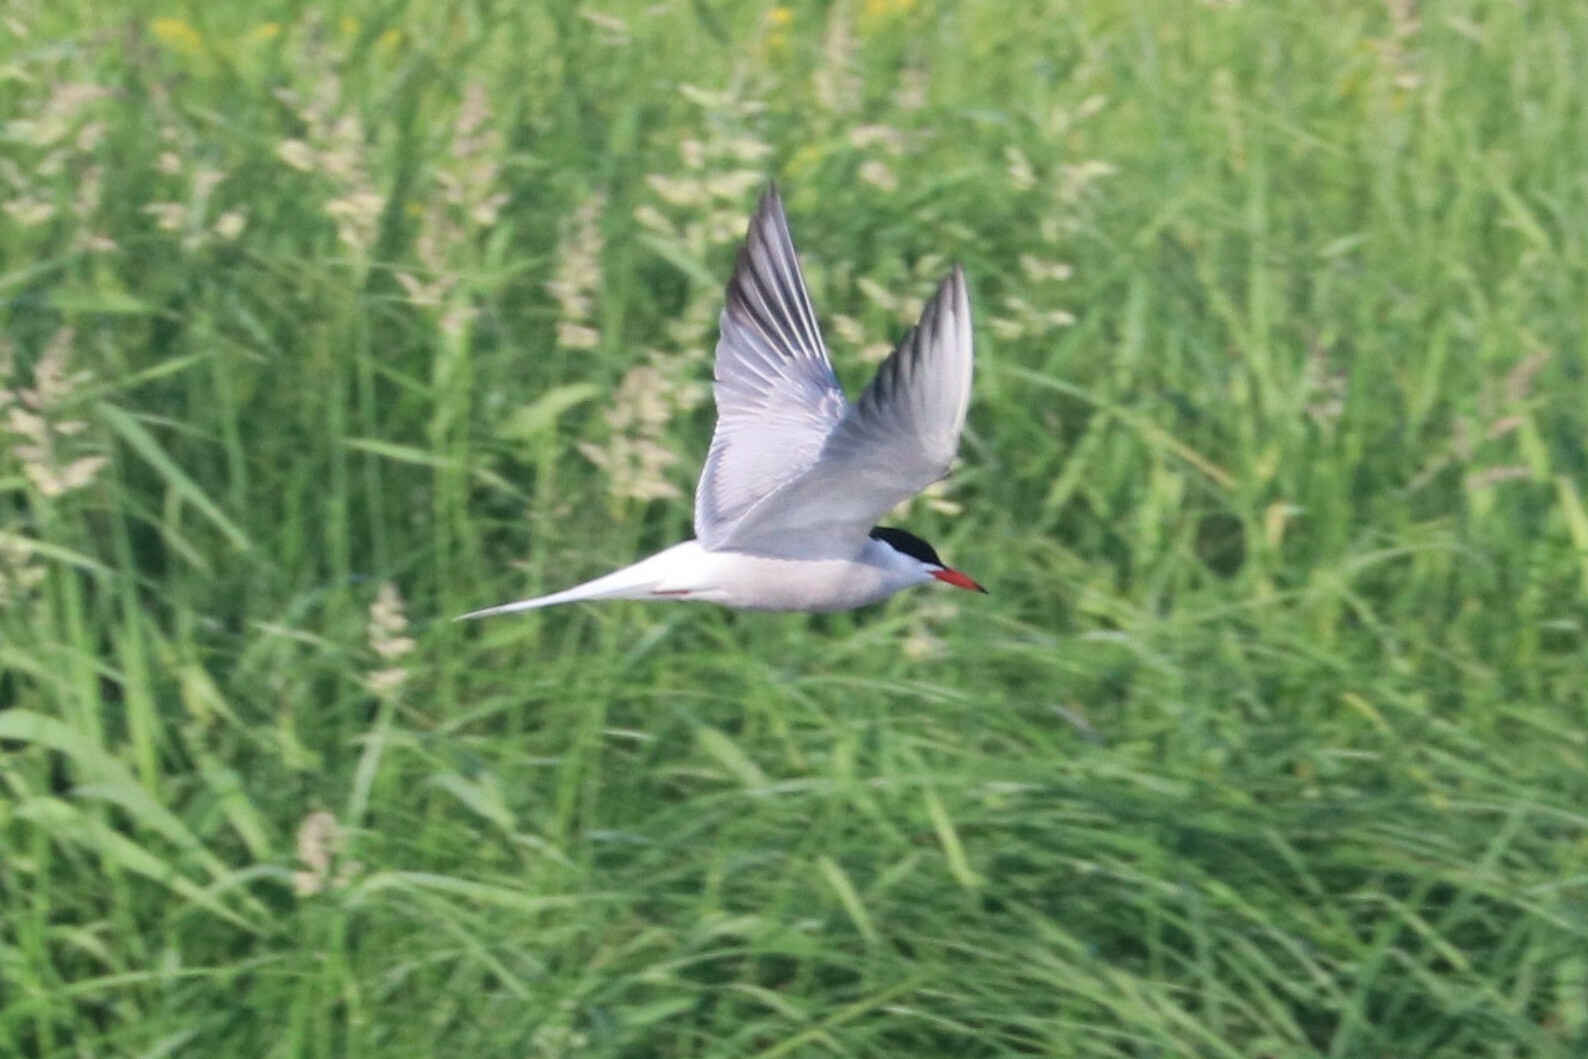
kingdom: Animalia
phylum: Chordata
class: Aves
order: Charadriiformes
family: Laridae
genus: Sterna
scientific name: Sterna hirundo
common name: Common tern
